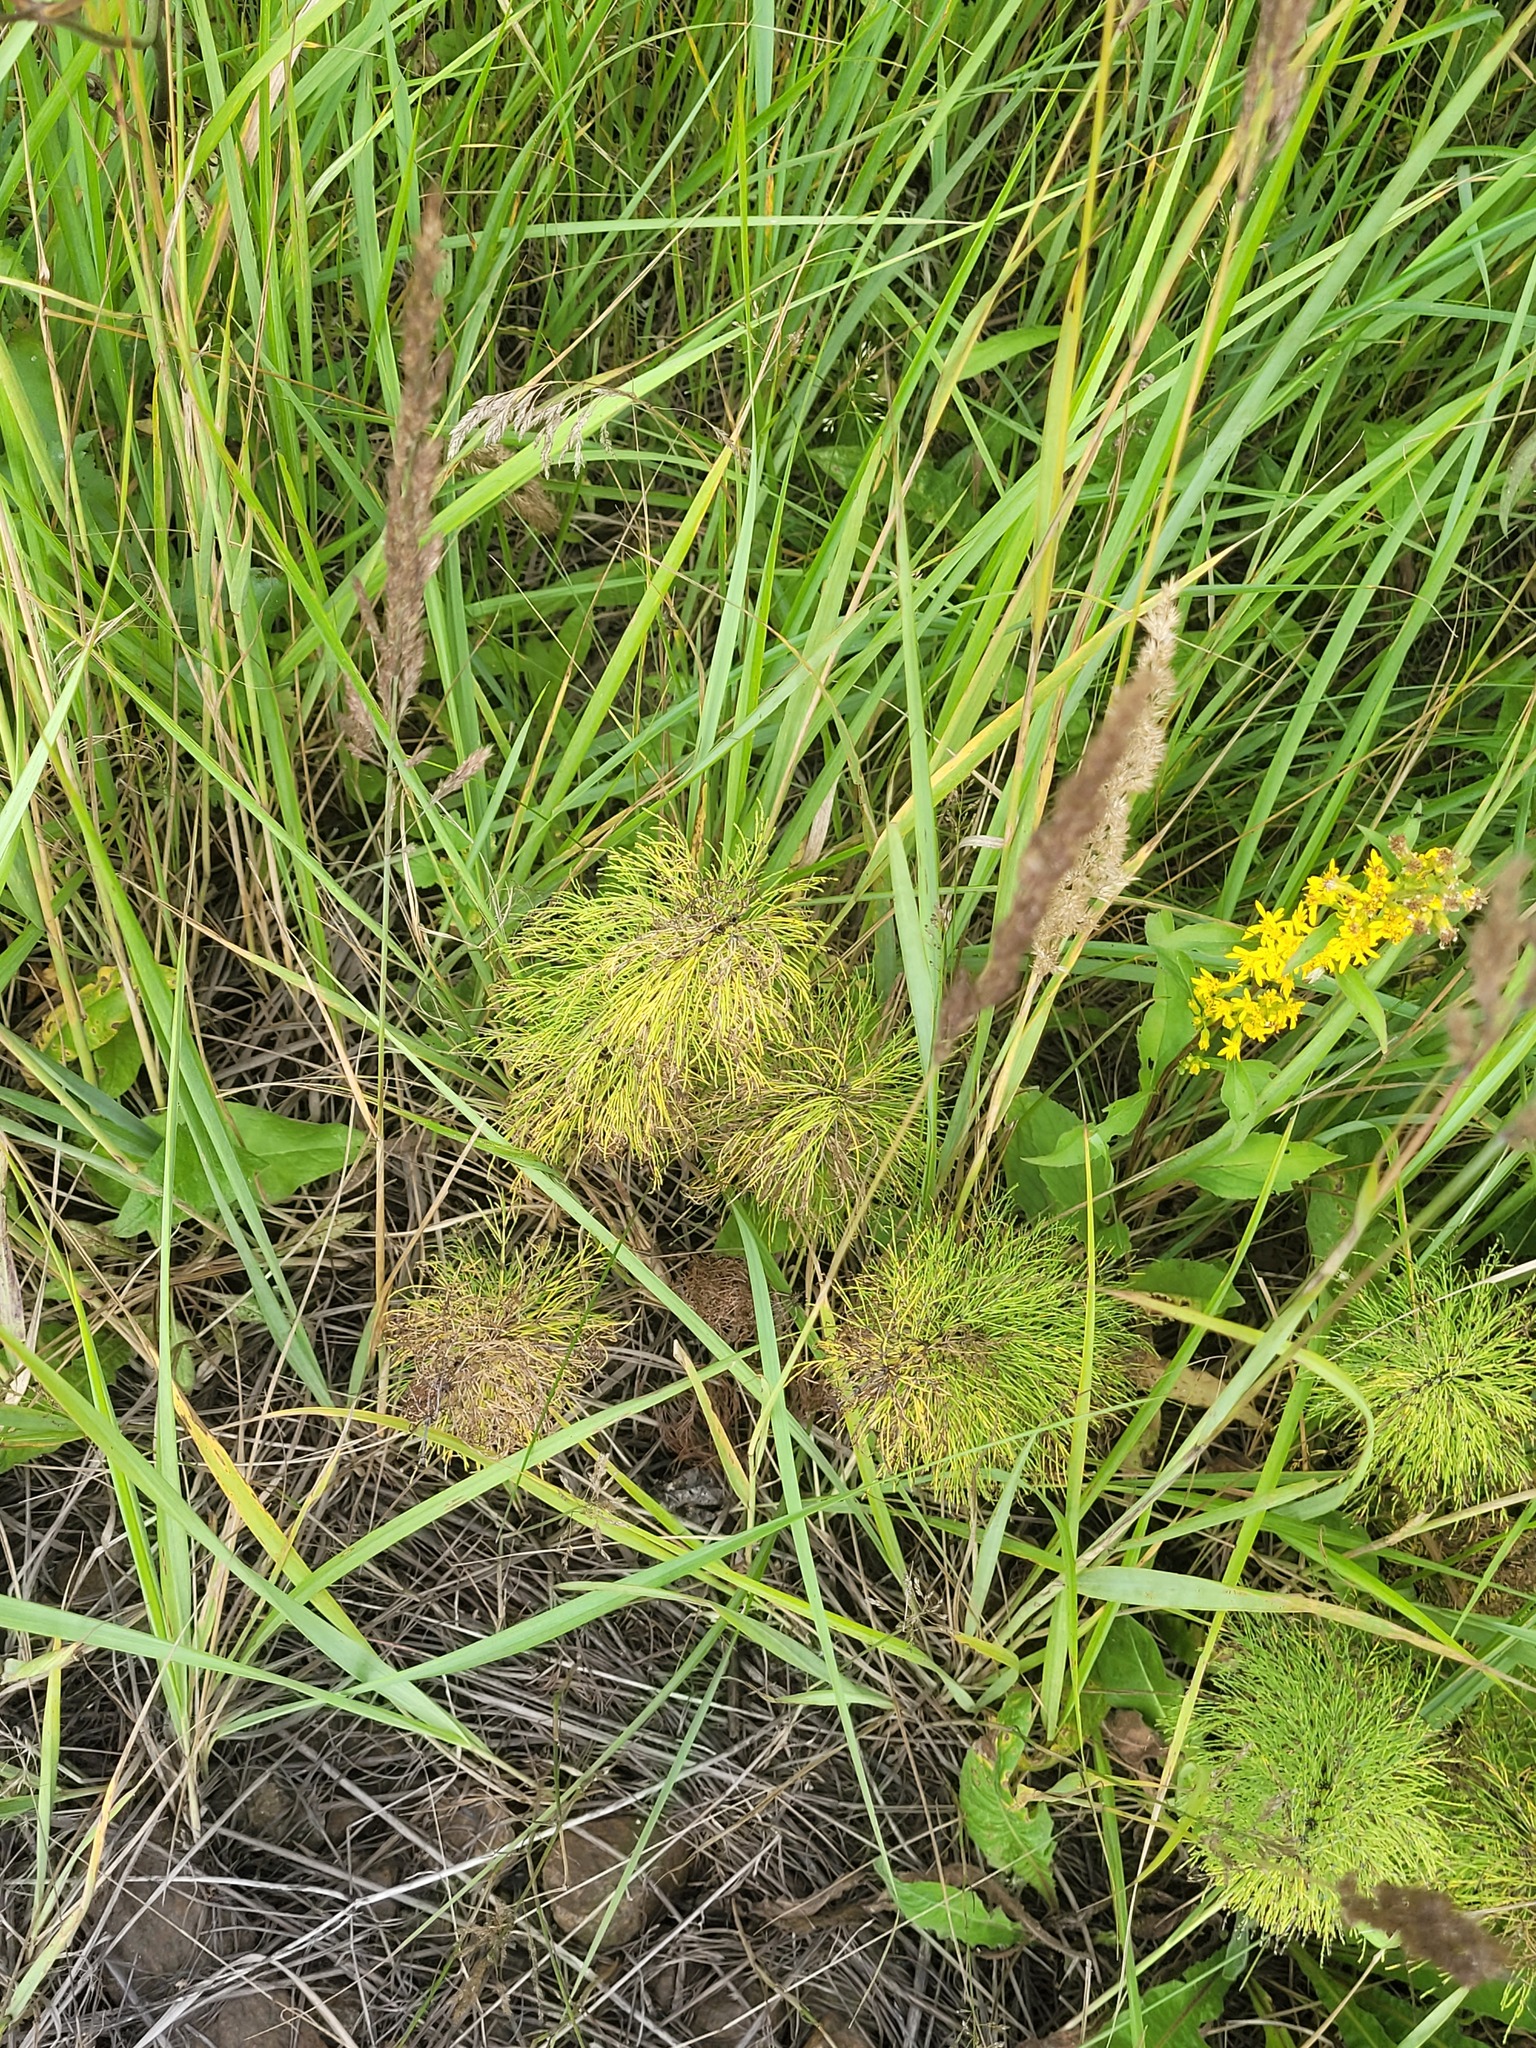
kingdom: Plantae
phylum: Tracheophyta
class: Polypodiopsida
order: Equisetales
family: Equisetaceae
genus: Equisetum
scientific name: Equisetum sylvaticum
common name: Wood horsetail
